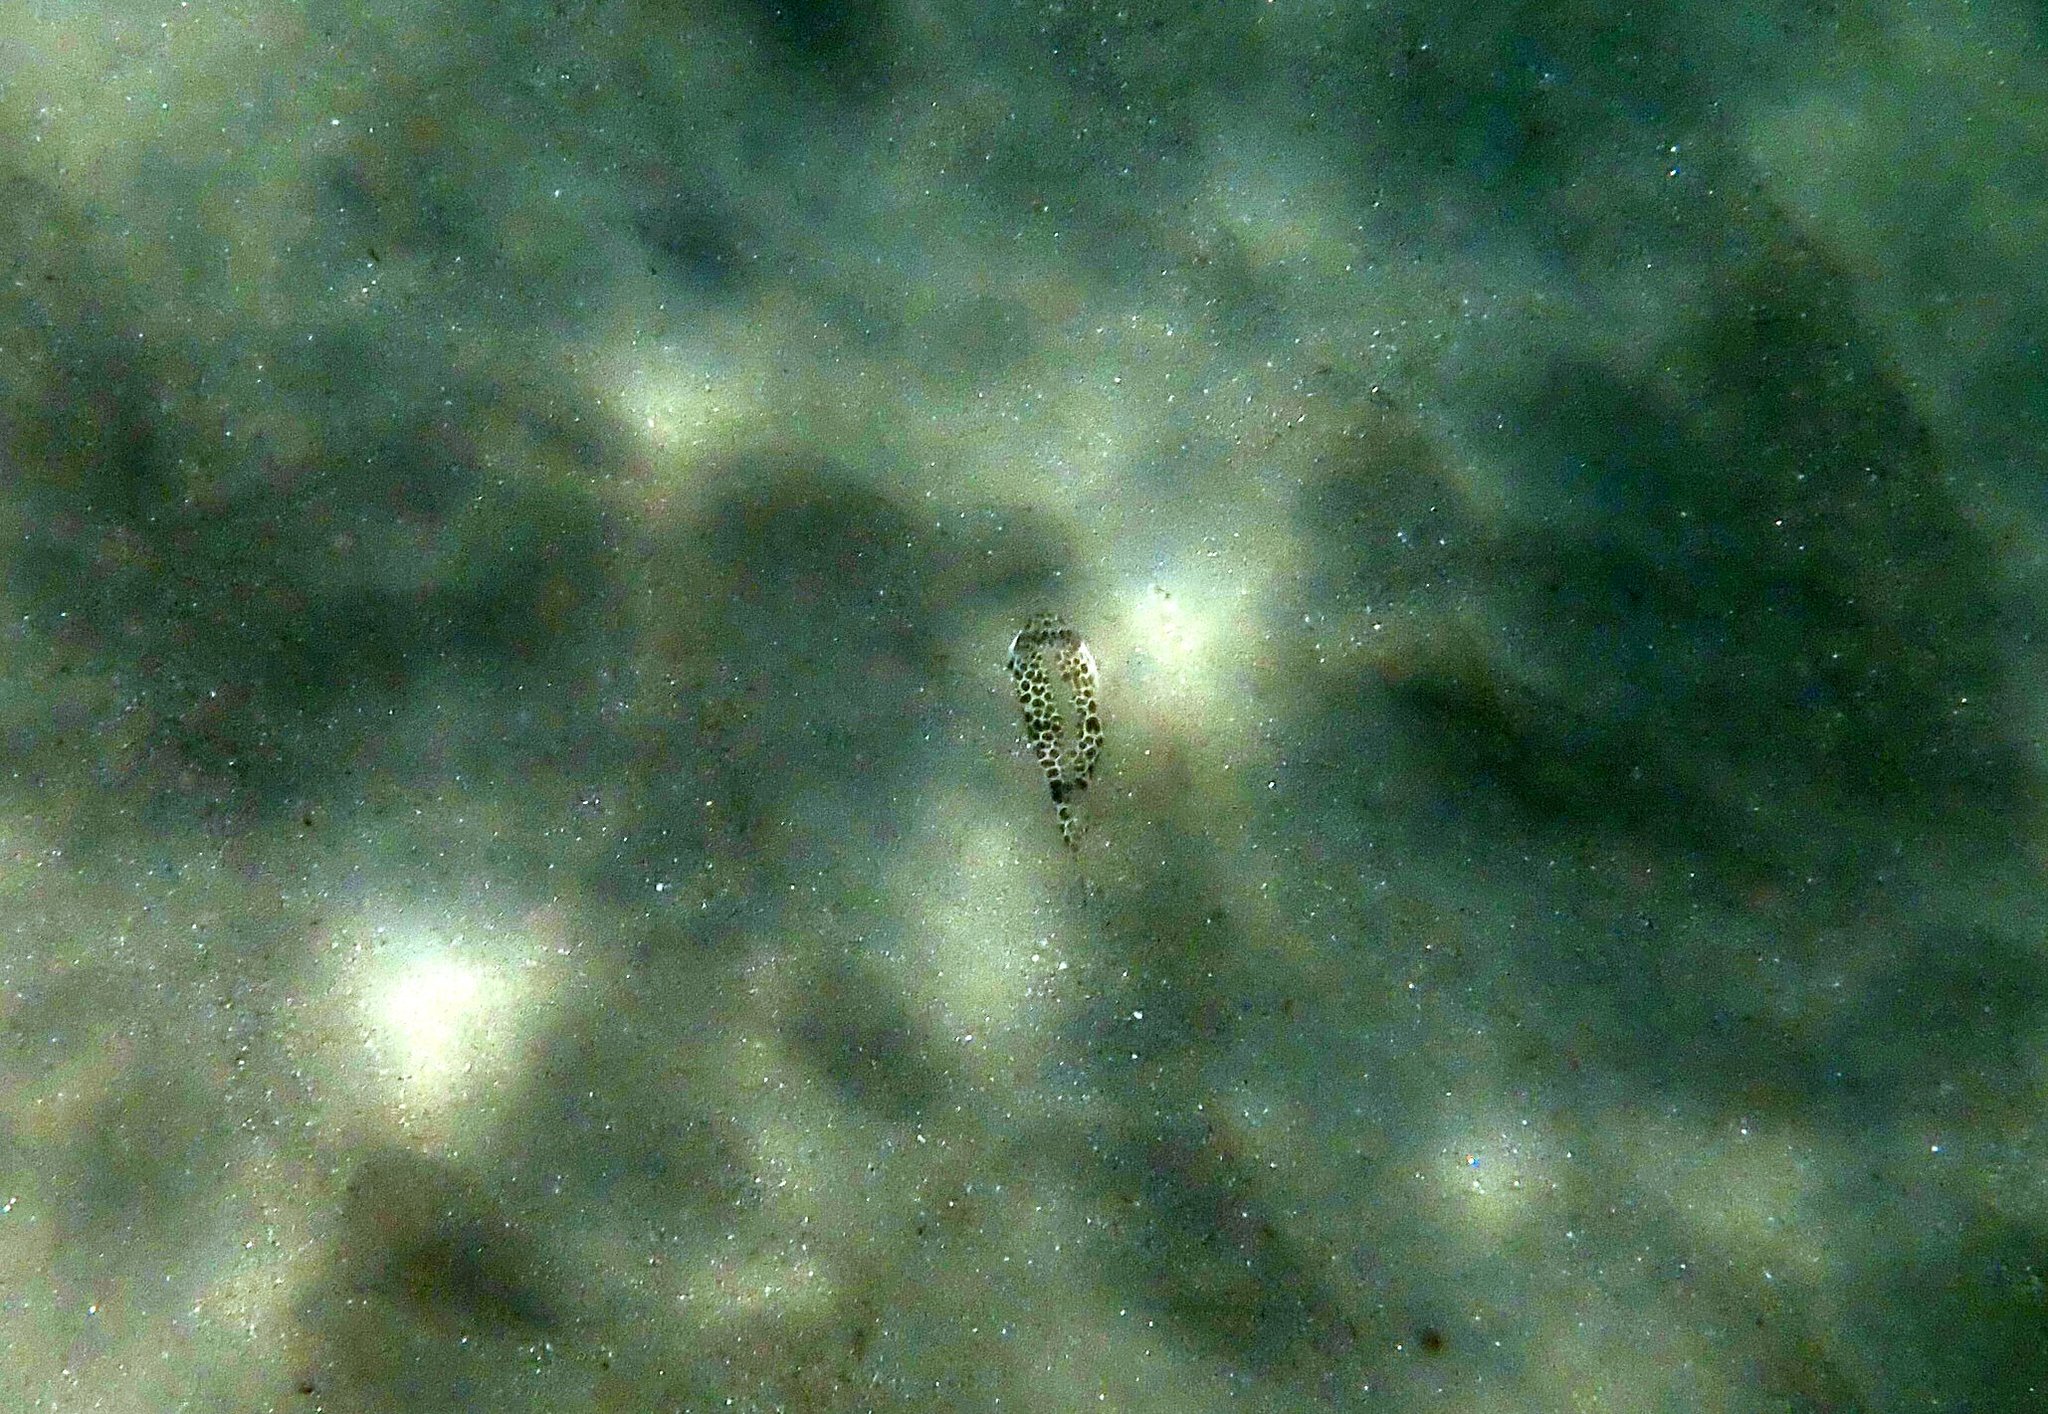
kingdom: Animalia
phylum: Chordata
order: Tetraodontiformes
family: Tetraodontidae
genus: Tetractenos
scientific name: Tetractenos glaber
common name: Smooth toadfish
